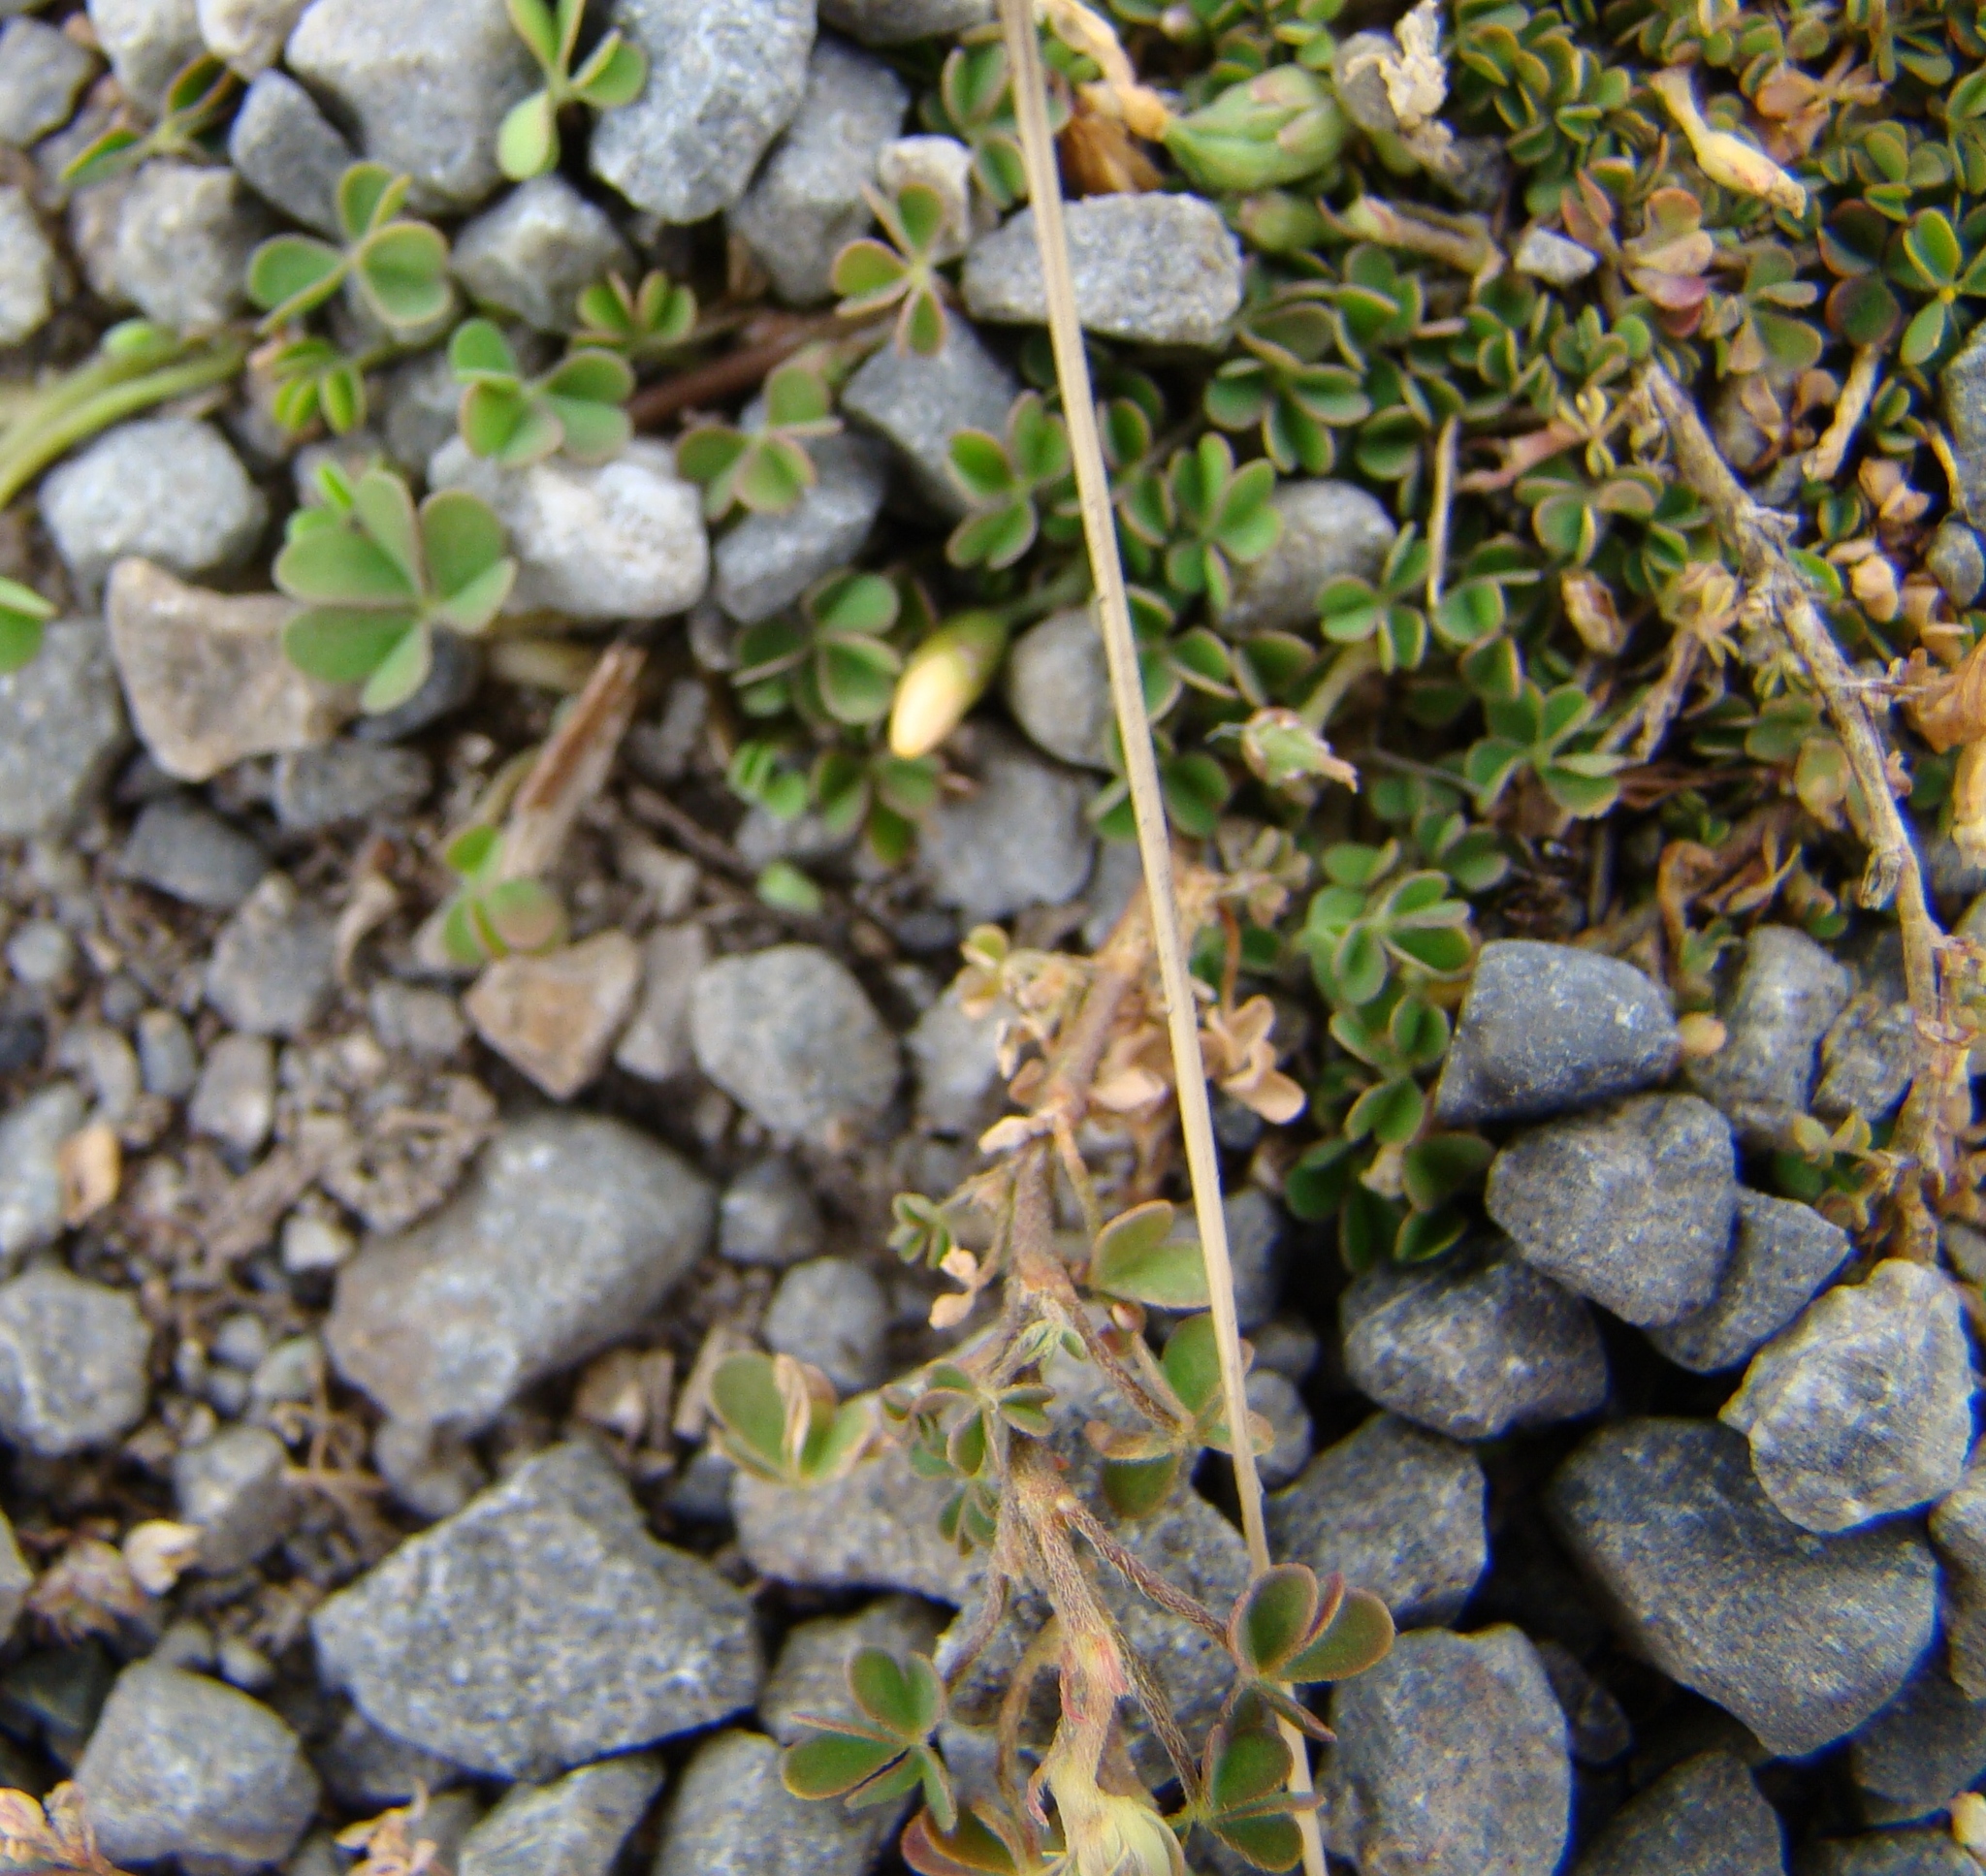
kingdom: Plantae
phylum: Tracheophyta
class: Magnoliopsida
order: Oxalidales
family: Oxalidaceae
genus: Oxalis
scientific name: Oxalis exilis
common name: Least yellow-sorrel
